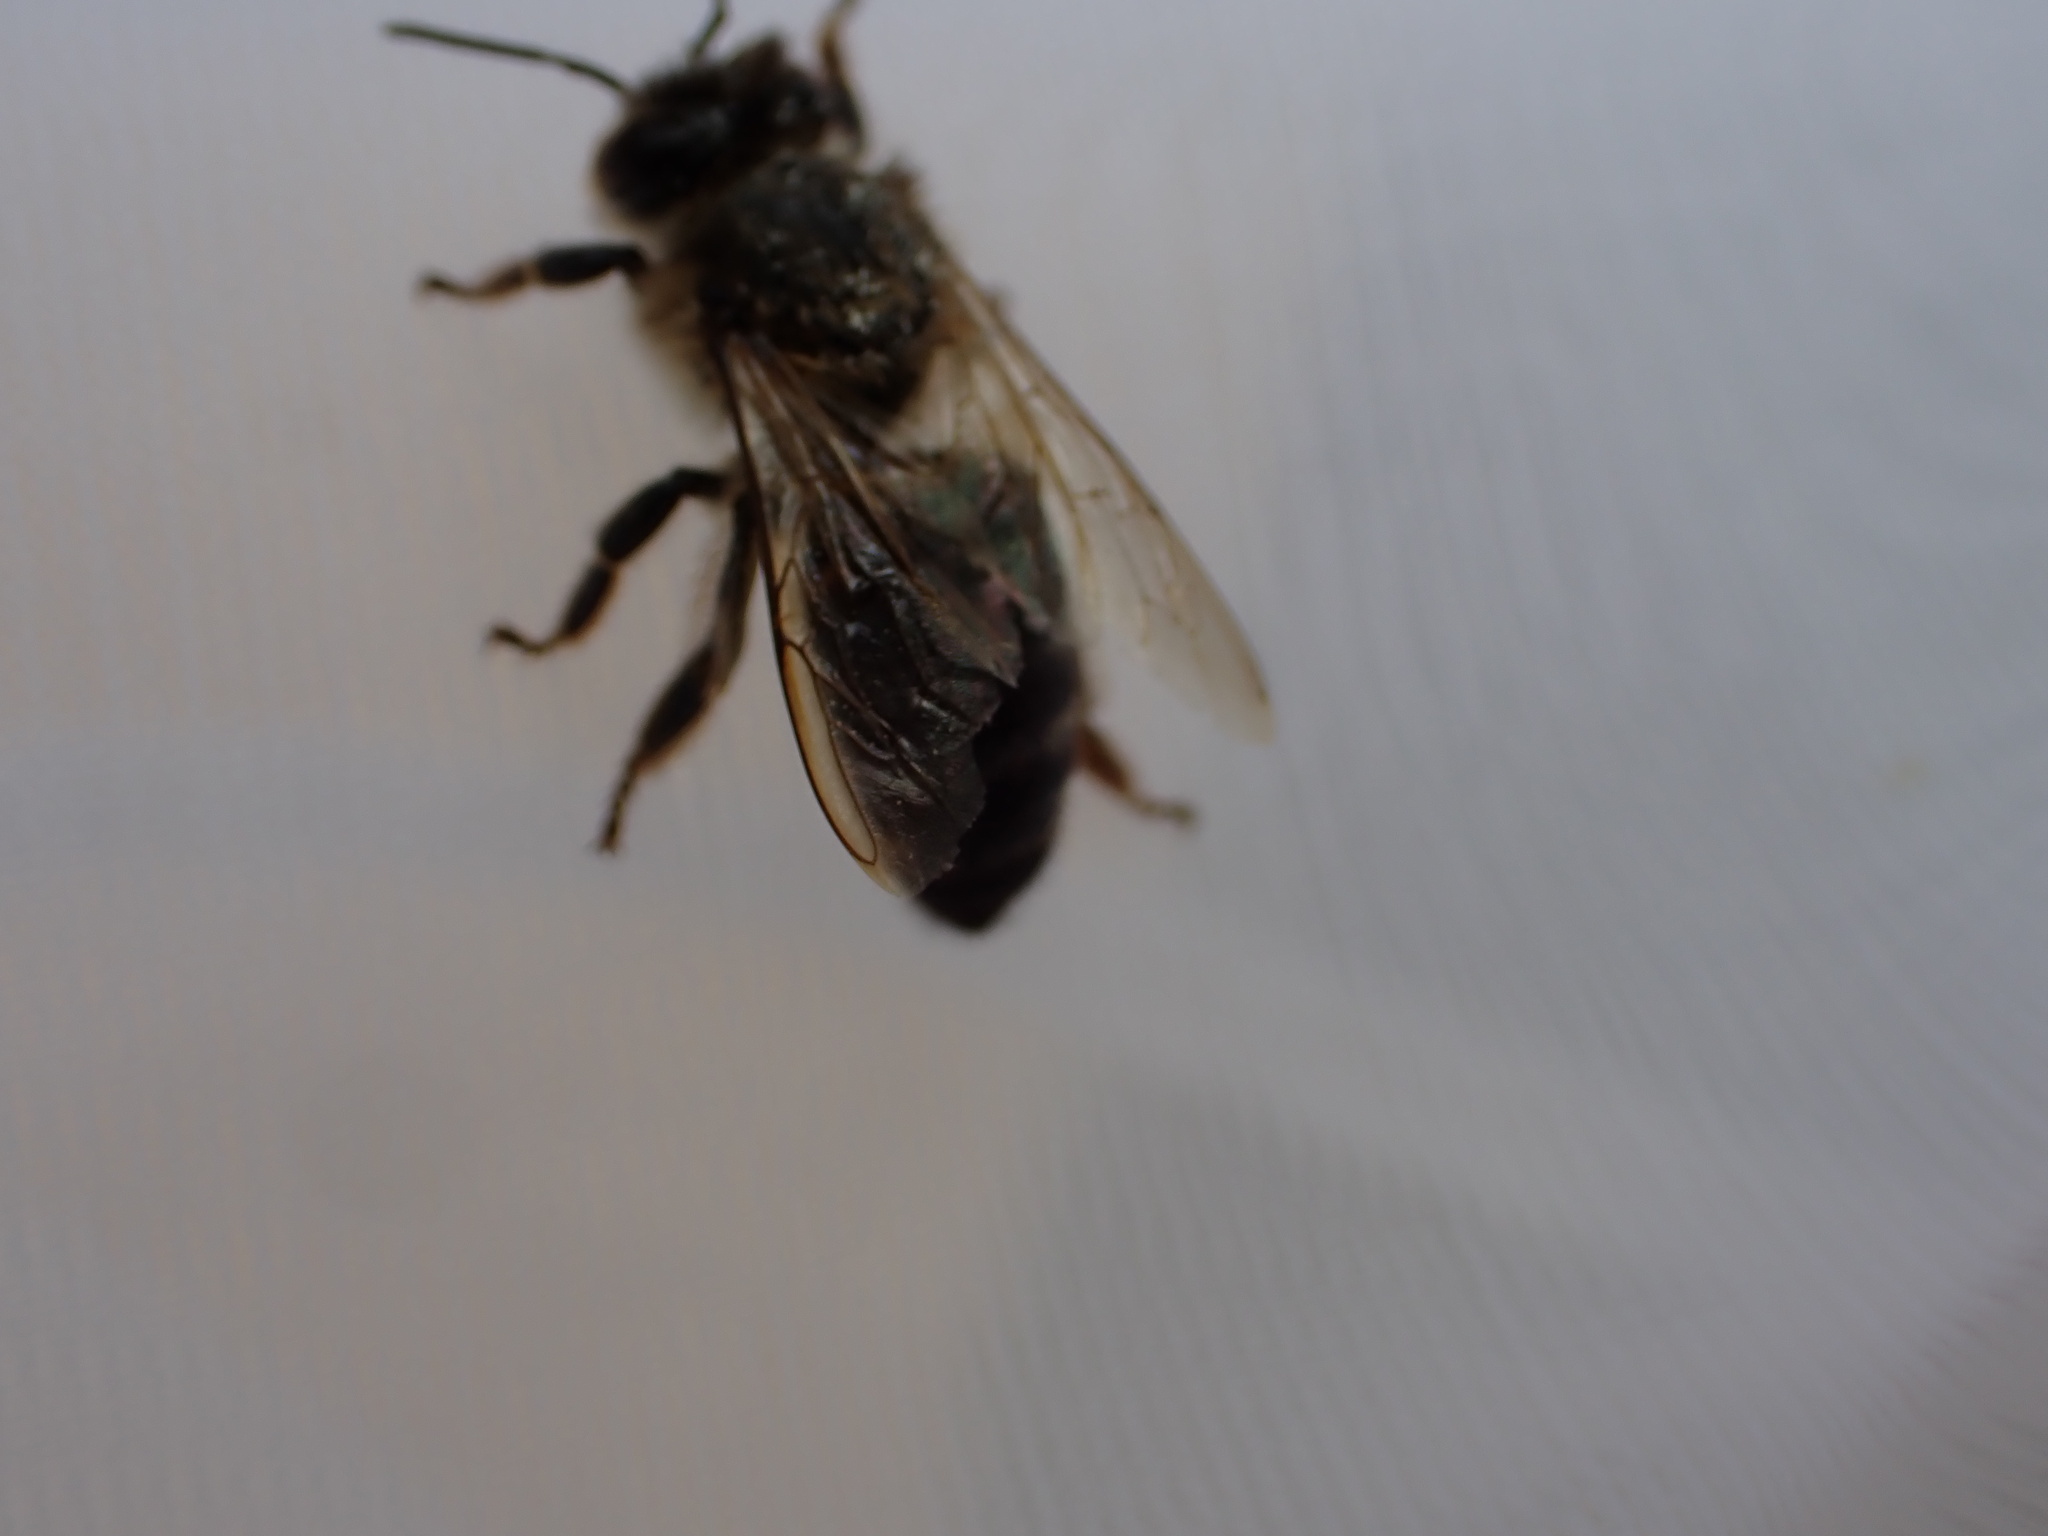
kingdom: Animalia
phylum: Arthropoda
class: Insecta
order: Hymenoptera
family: Apidae
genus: Apis
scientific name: Apis mellifera
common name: Honey bee
